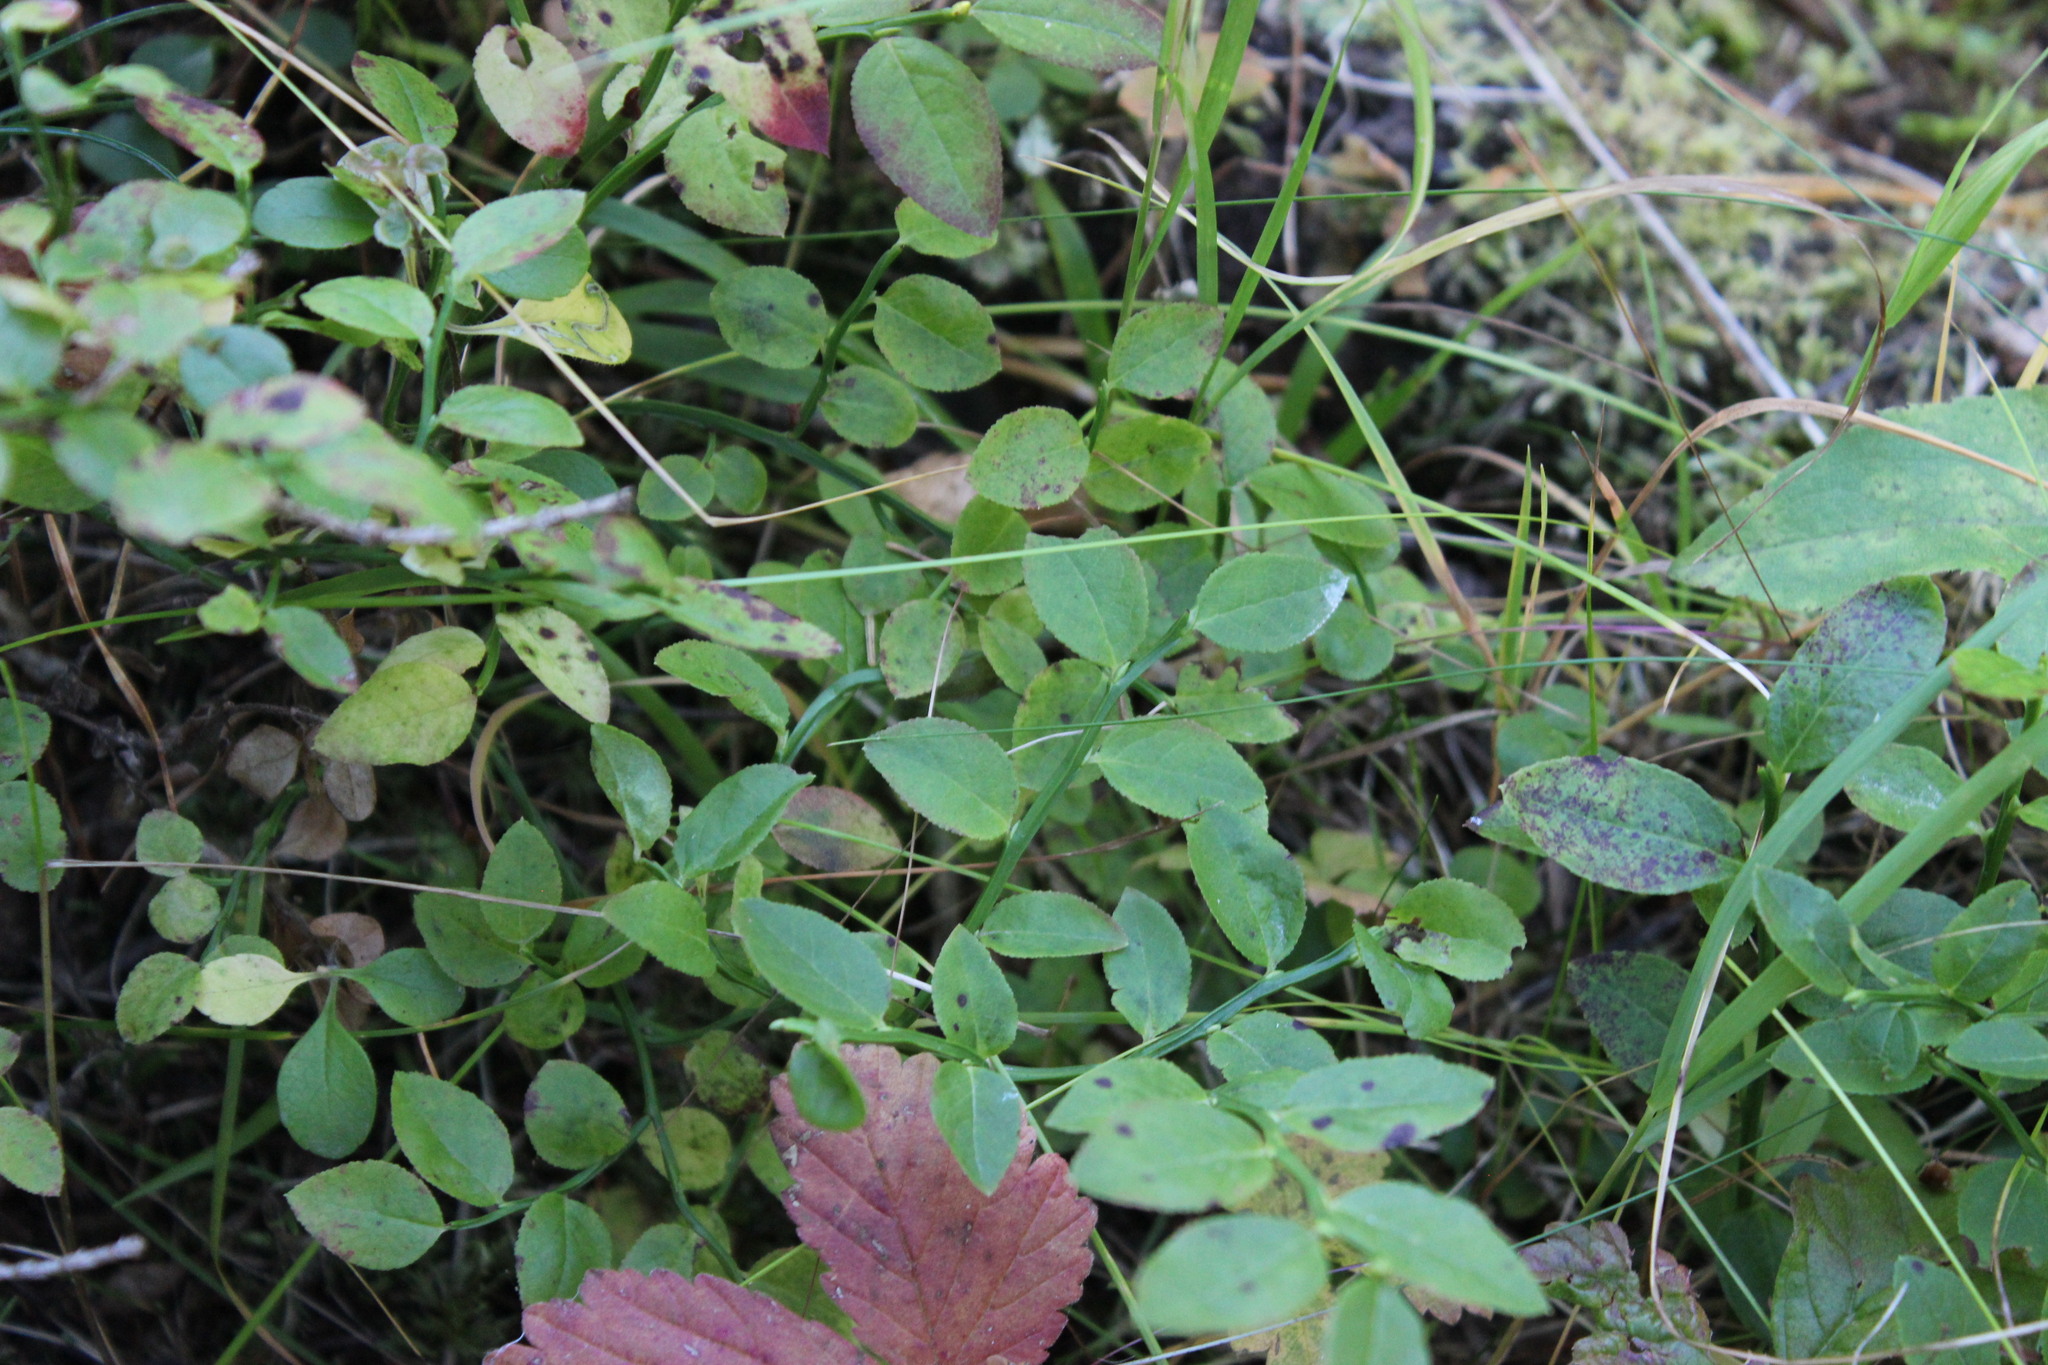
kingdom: Plantae
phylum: Tracheophyta
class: Magnoliopsida
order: Ericales
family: Ericaceae
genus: Vaccinium
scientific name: Vaccinium myrtillus
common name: Bilberry
